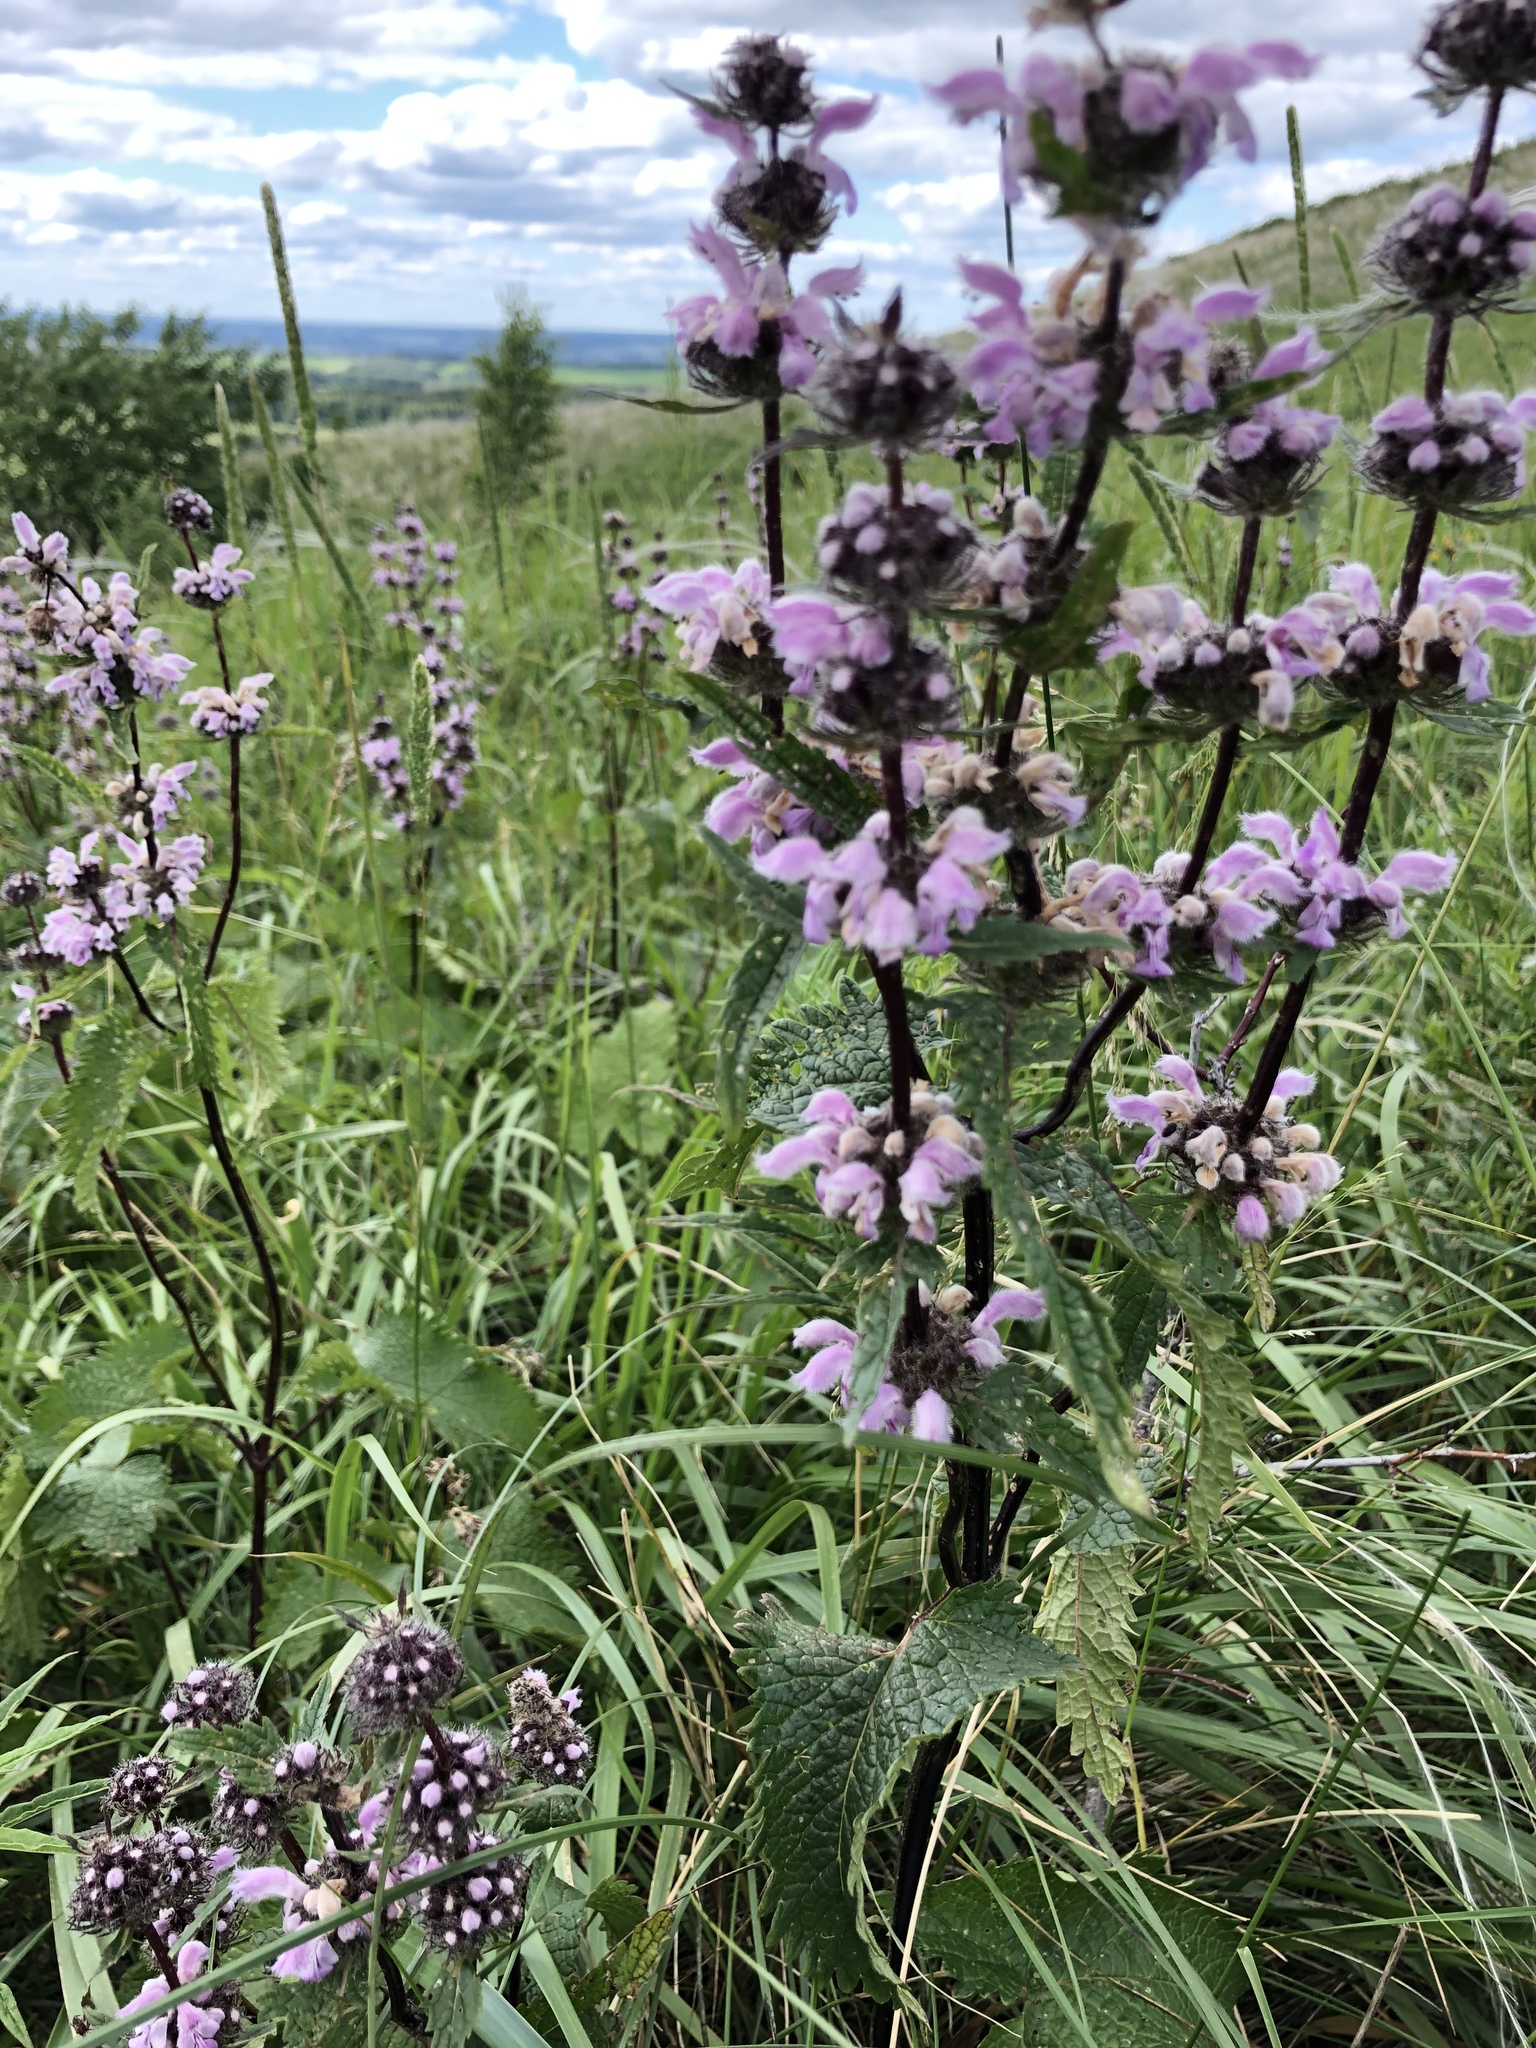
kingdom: Plantae
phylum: Tracheophyta
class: Magnoliopsida
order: Lamiales
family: Lamiaceae
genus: Phlomoides
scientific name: Phlomoides tuberosa
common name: Tuberous jerusalem sage
